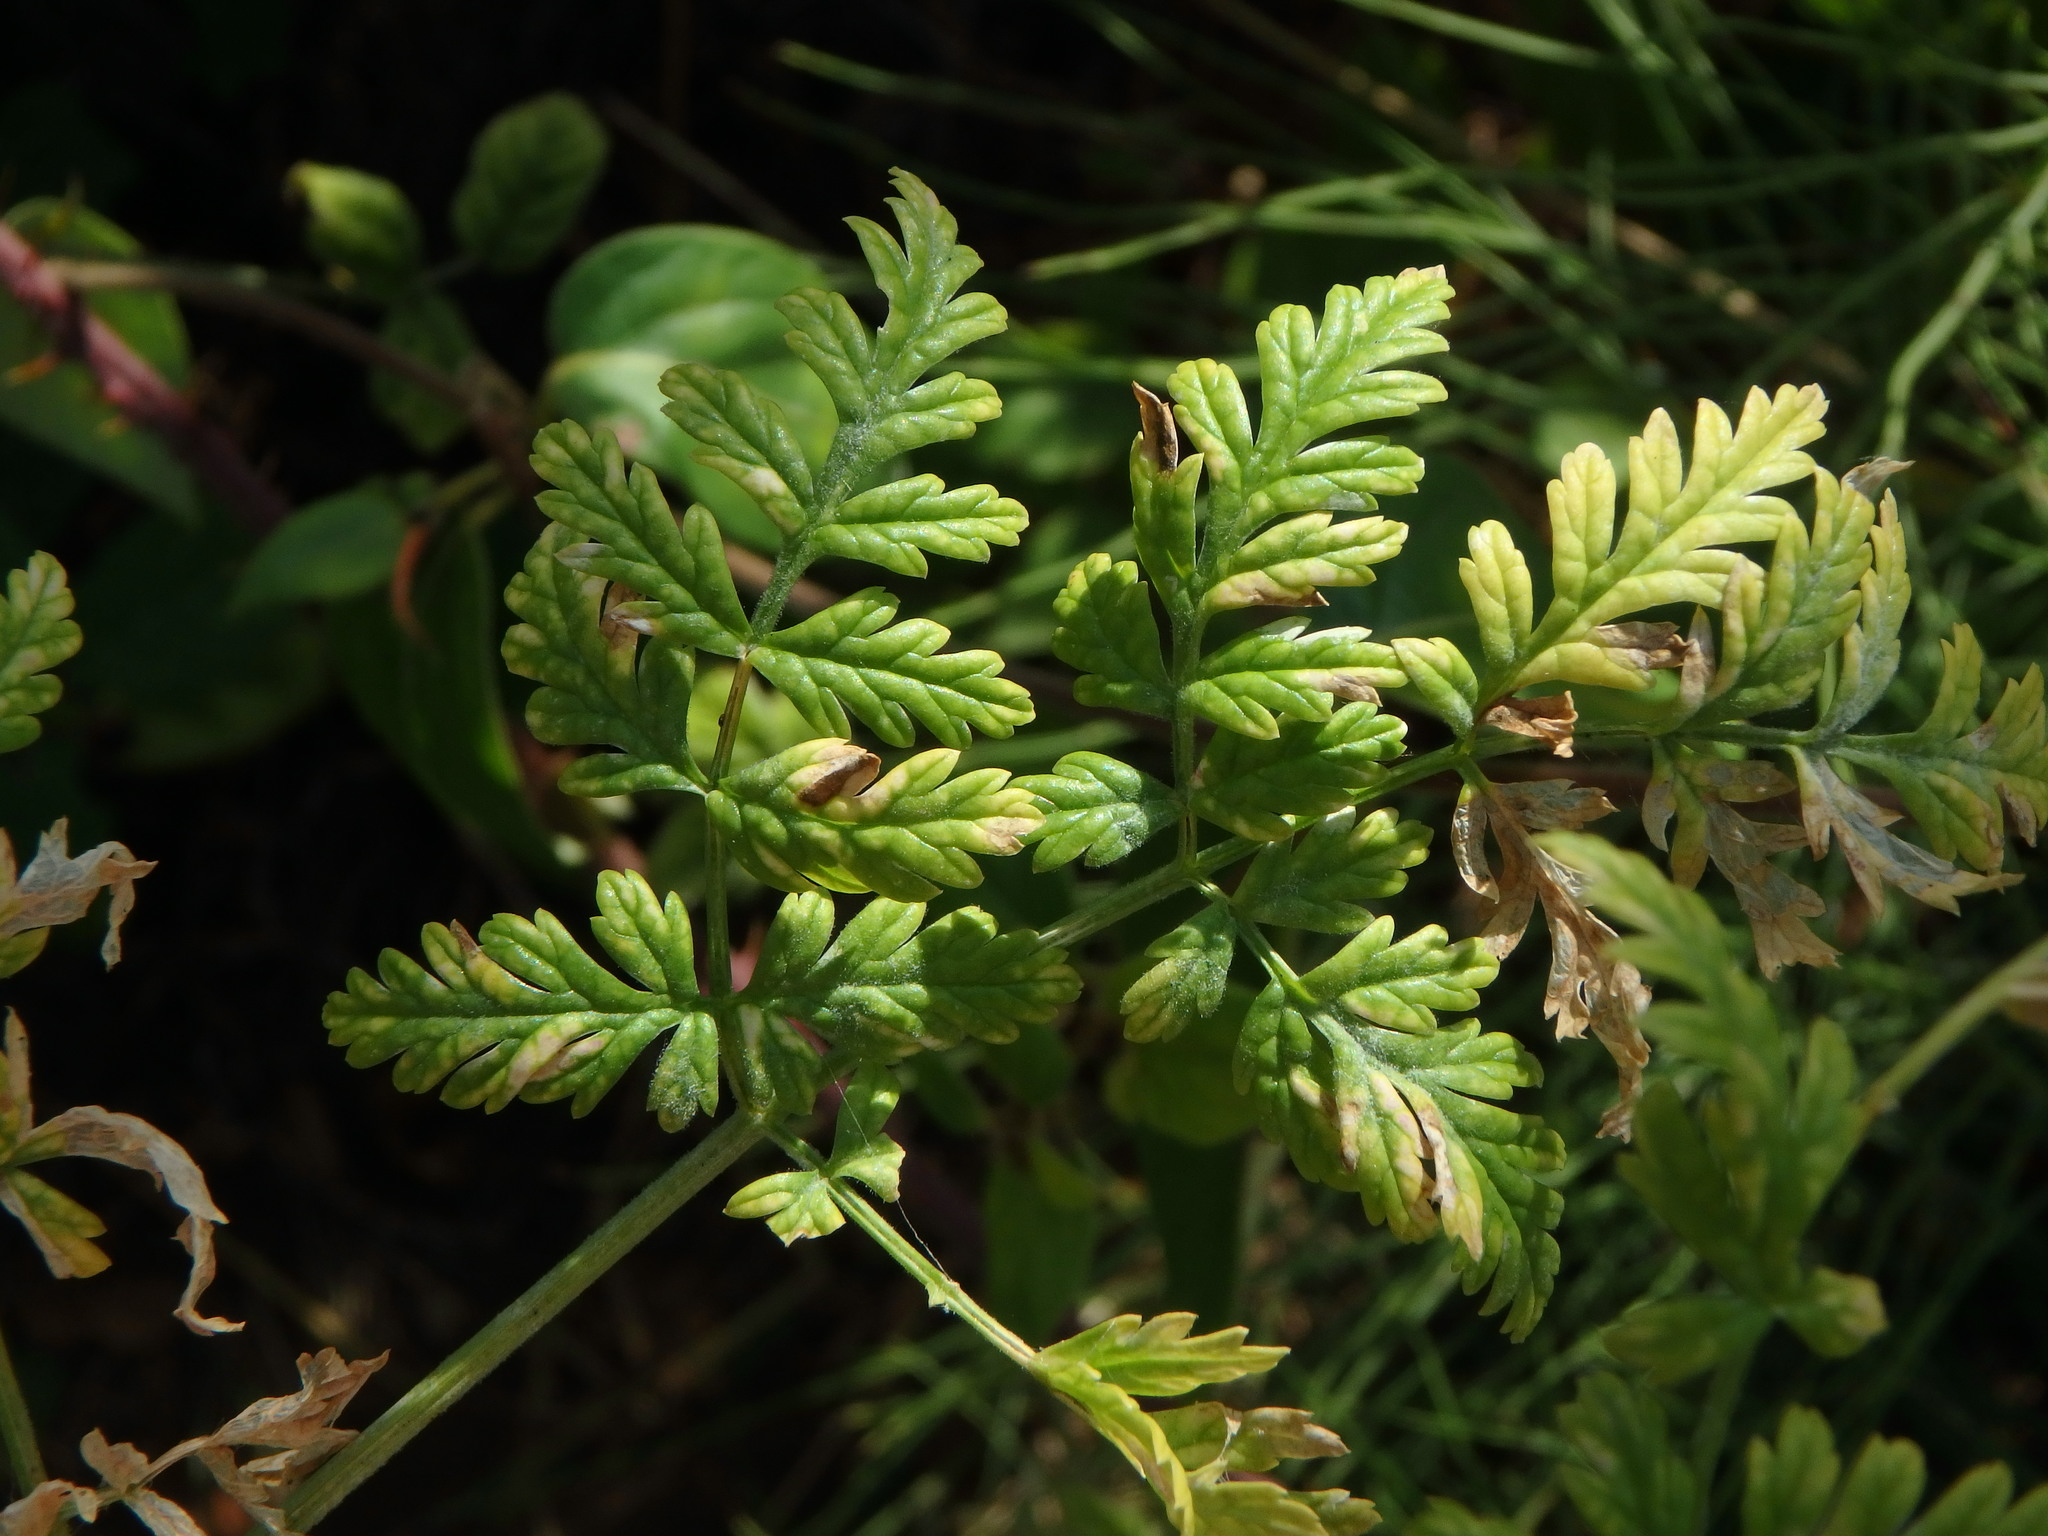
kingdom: Plantae
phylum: Tracheophyta
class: Magnoliopsida
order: Apiales
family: Apiaceae
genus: Conium
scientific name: Conium maculatum
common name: Hemlock
